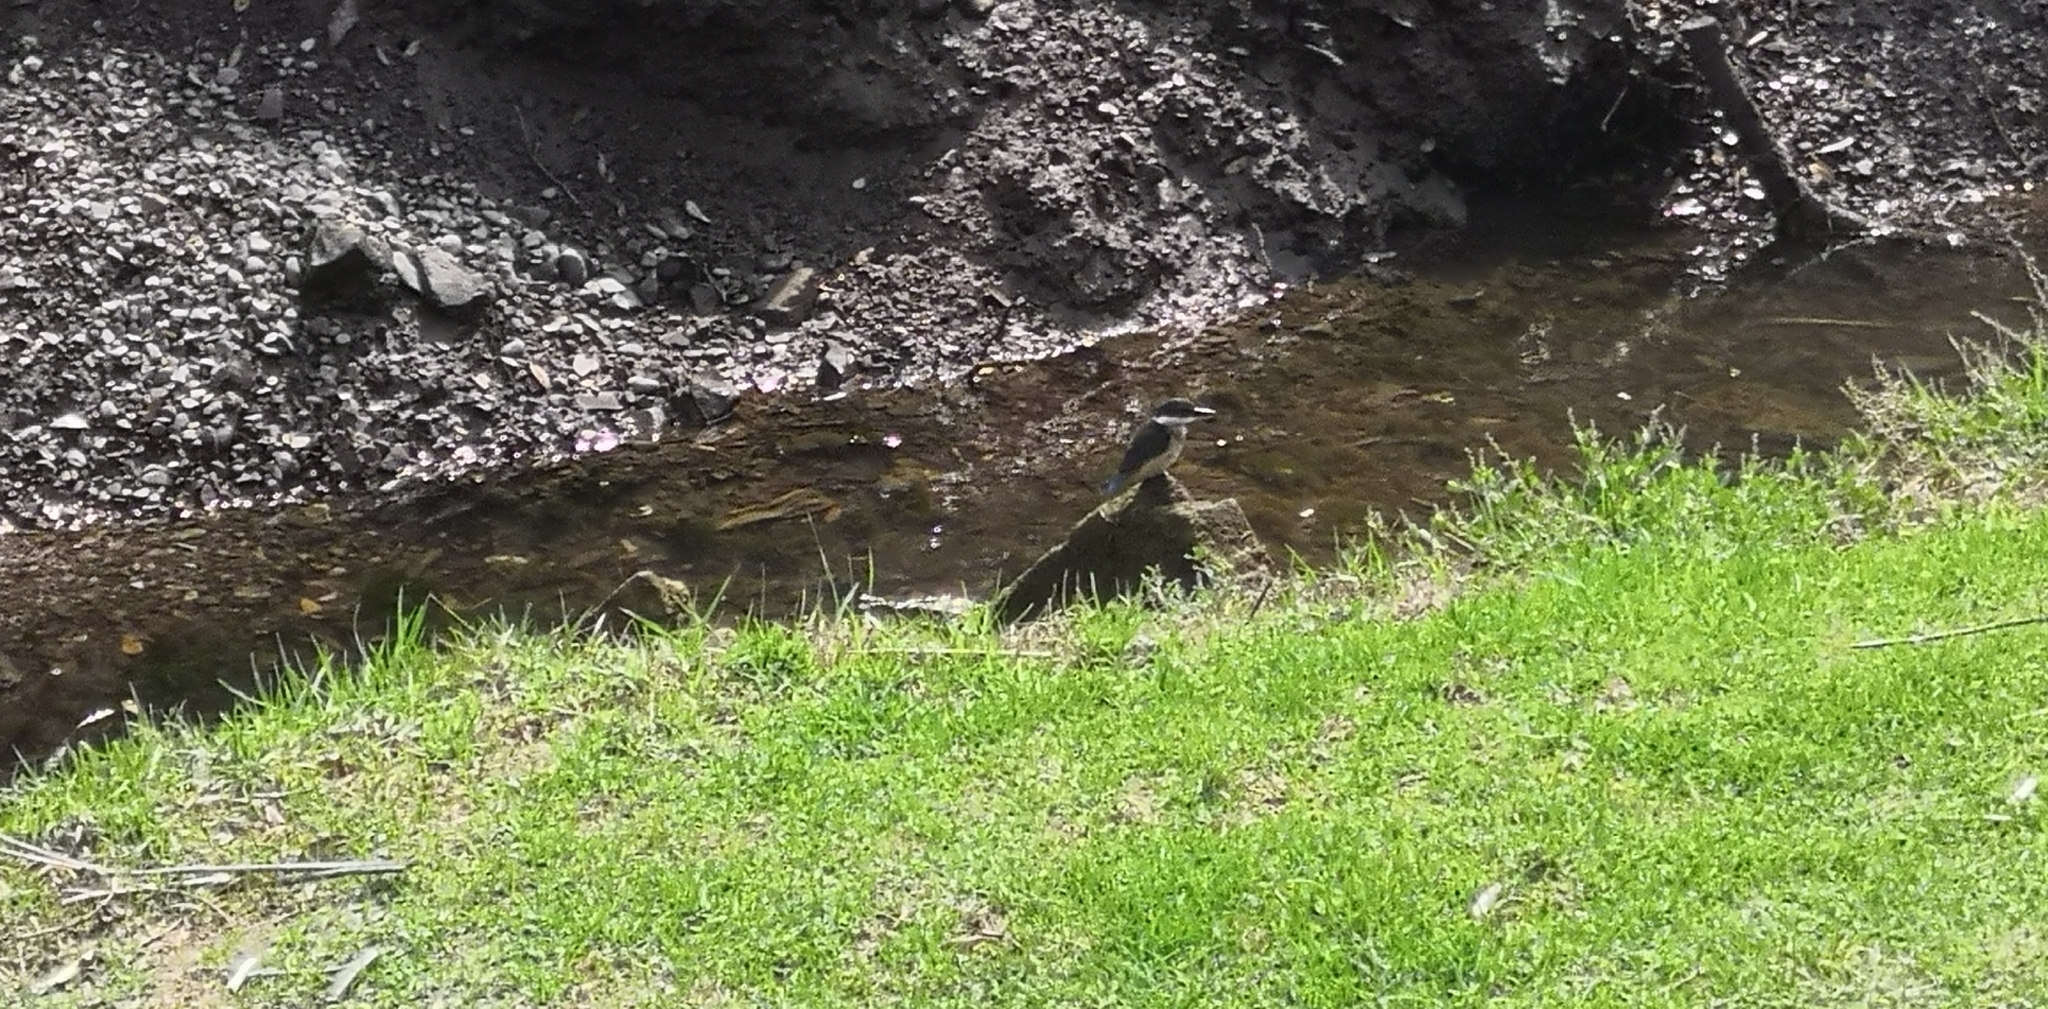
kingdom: Animalia
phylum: Chordata
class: Aves
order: Coraciiformes
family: Alcedinidae
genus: Todiramphus
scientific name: Todiramphus sanctus
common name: Sacred kingfisher
